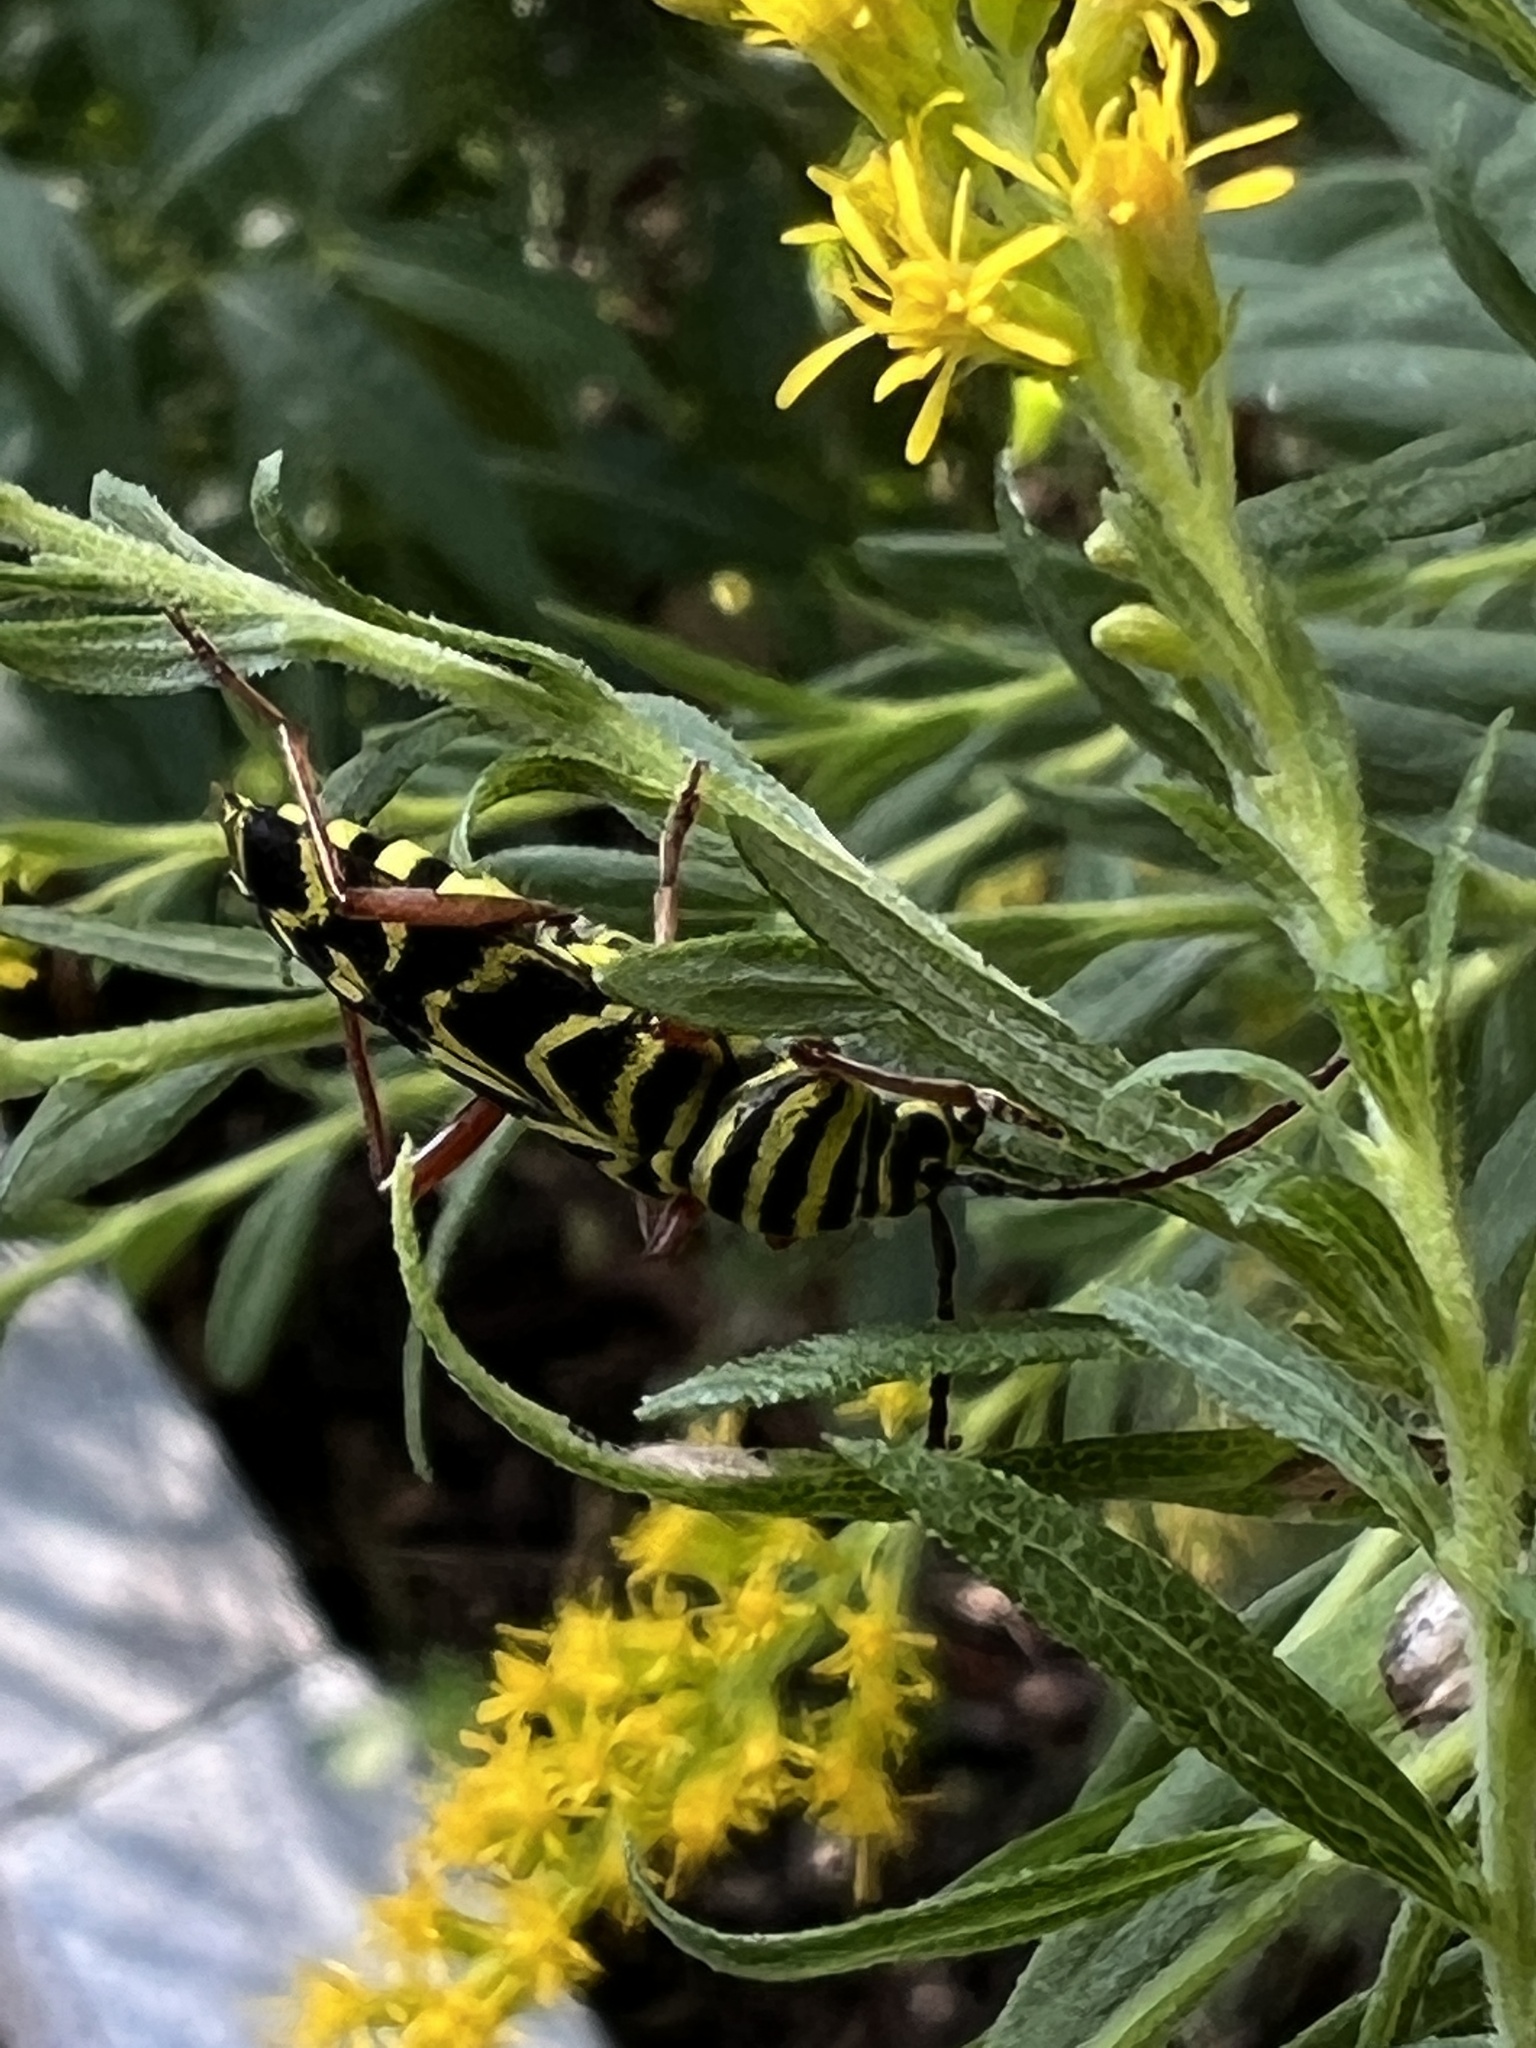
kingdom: Animalia
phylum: Arthropoda
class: Insecta
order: Coleoptera
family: Cerambycidae
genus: Megacyllene
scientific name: Megacyllene robiniae
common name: Locust borer
